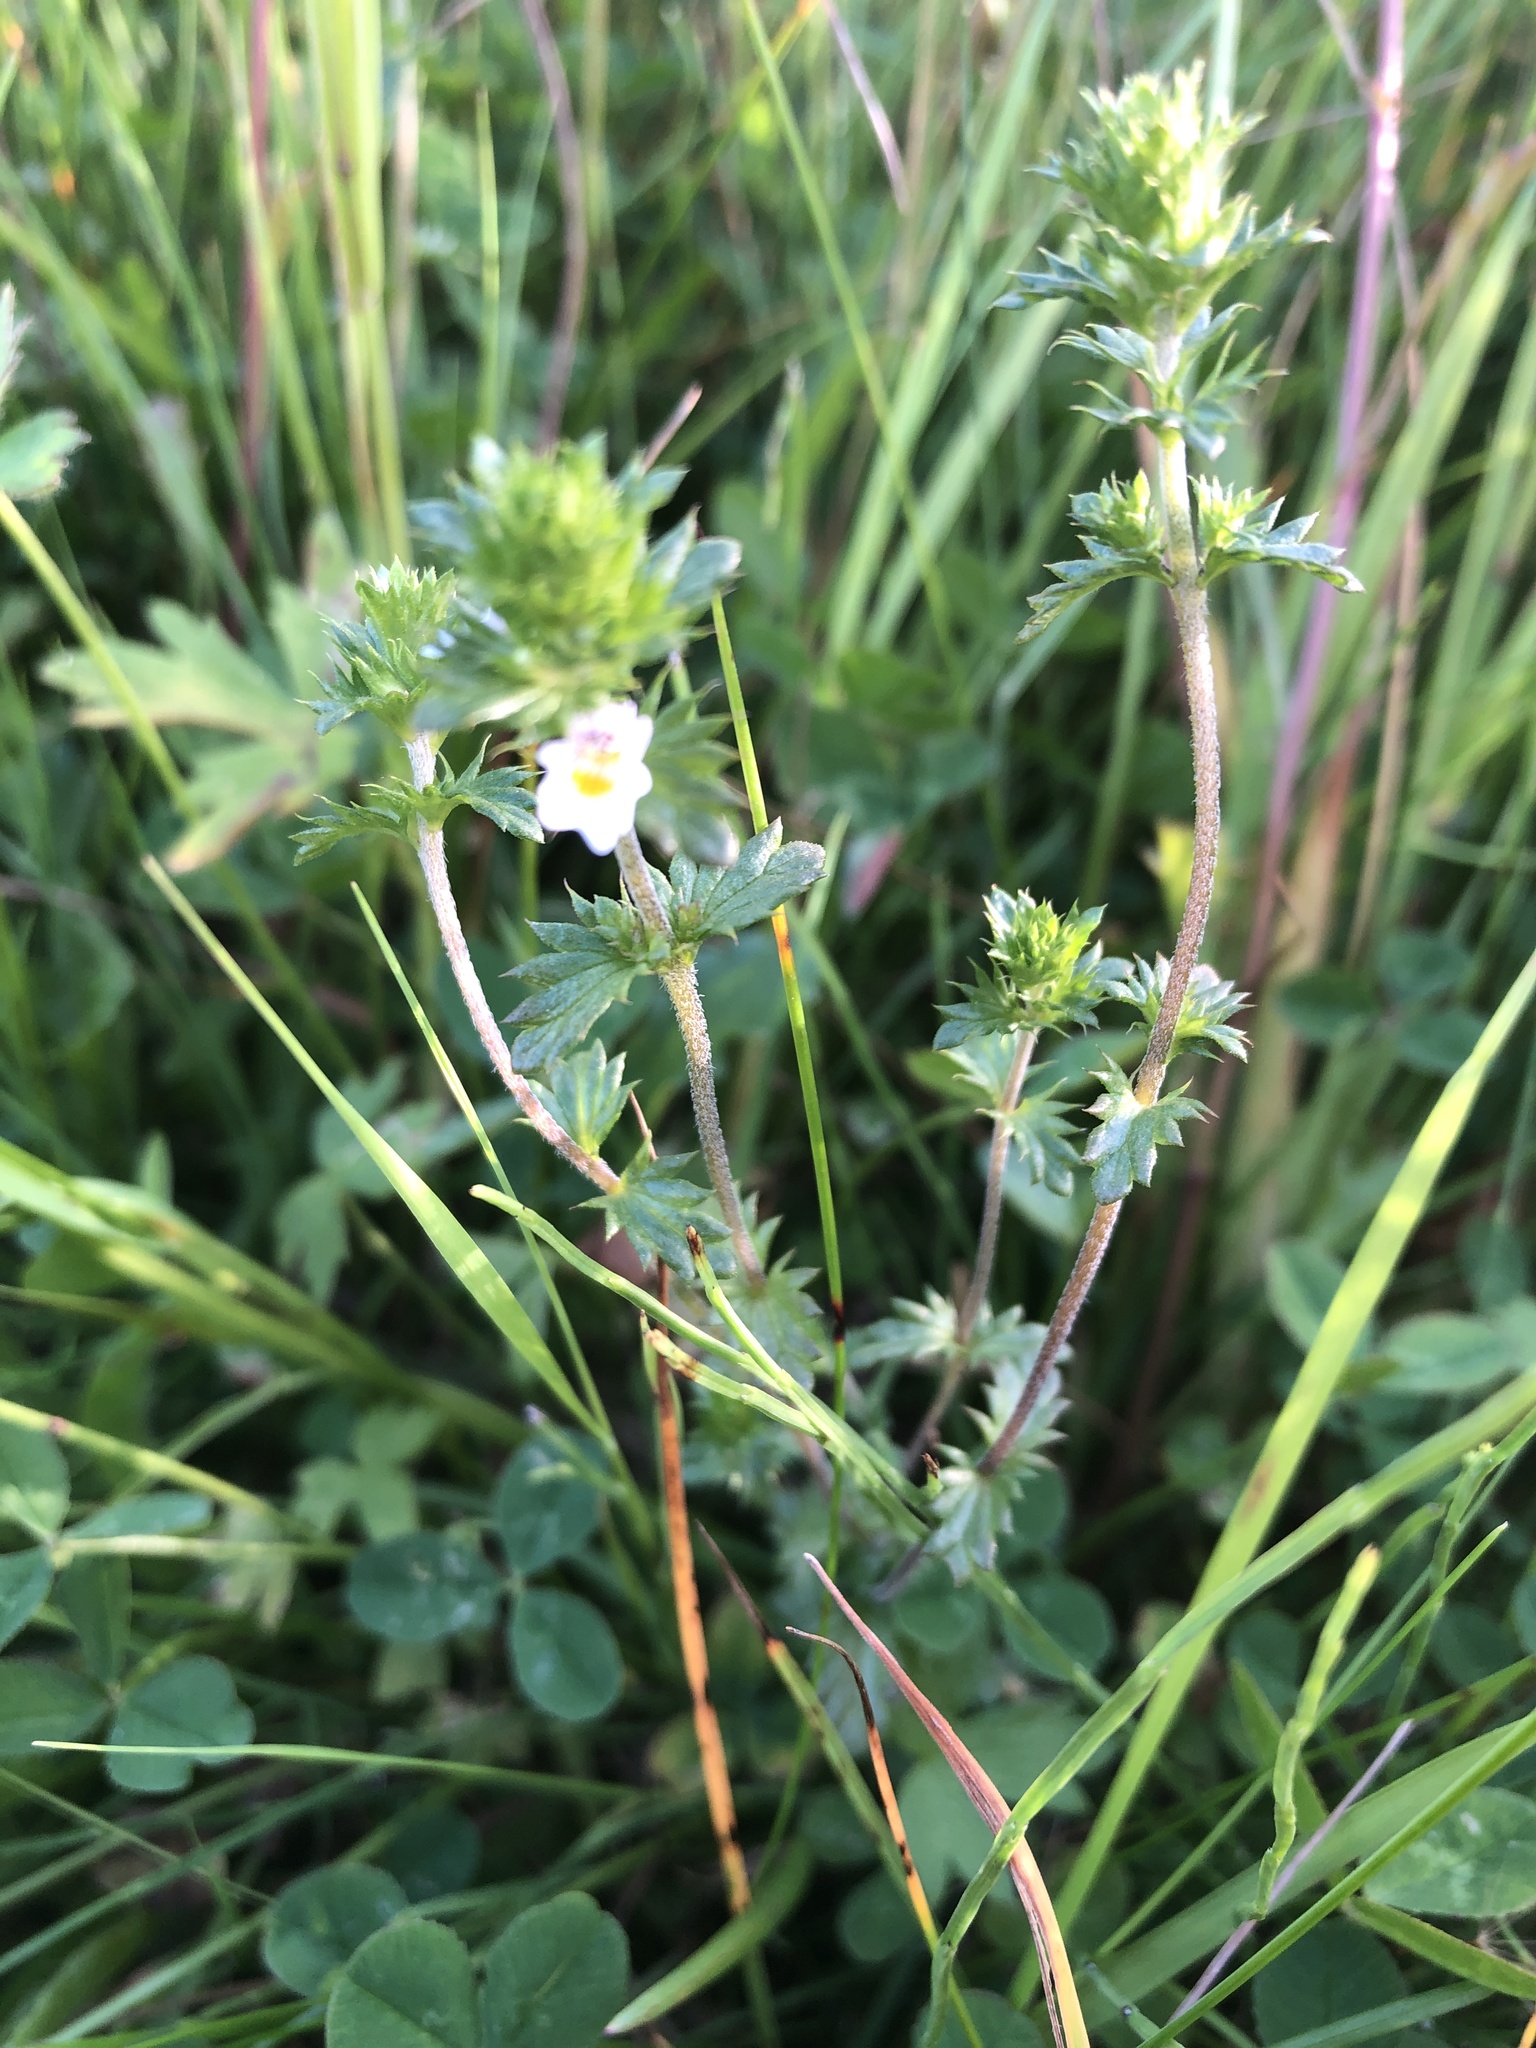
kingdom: Plantae
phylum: Tracheophyta
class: Magnoliopsida
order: Lamiales
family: Orobanchaceae
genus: Euphrasia
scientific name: Euphrasia nemorosa
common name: Common eyebright
